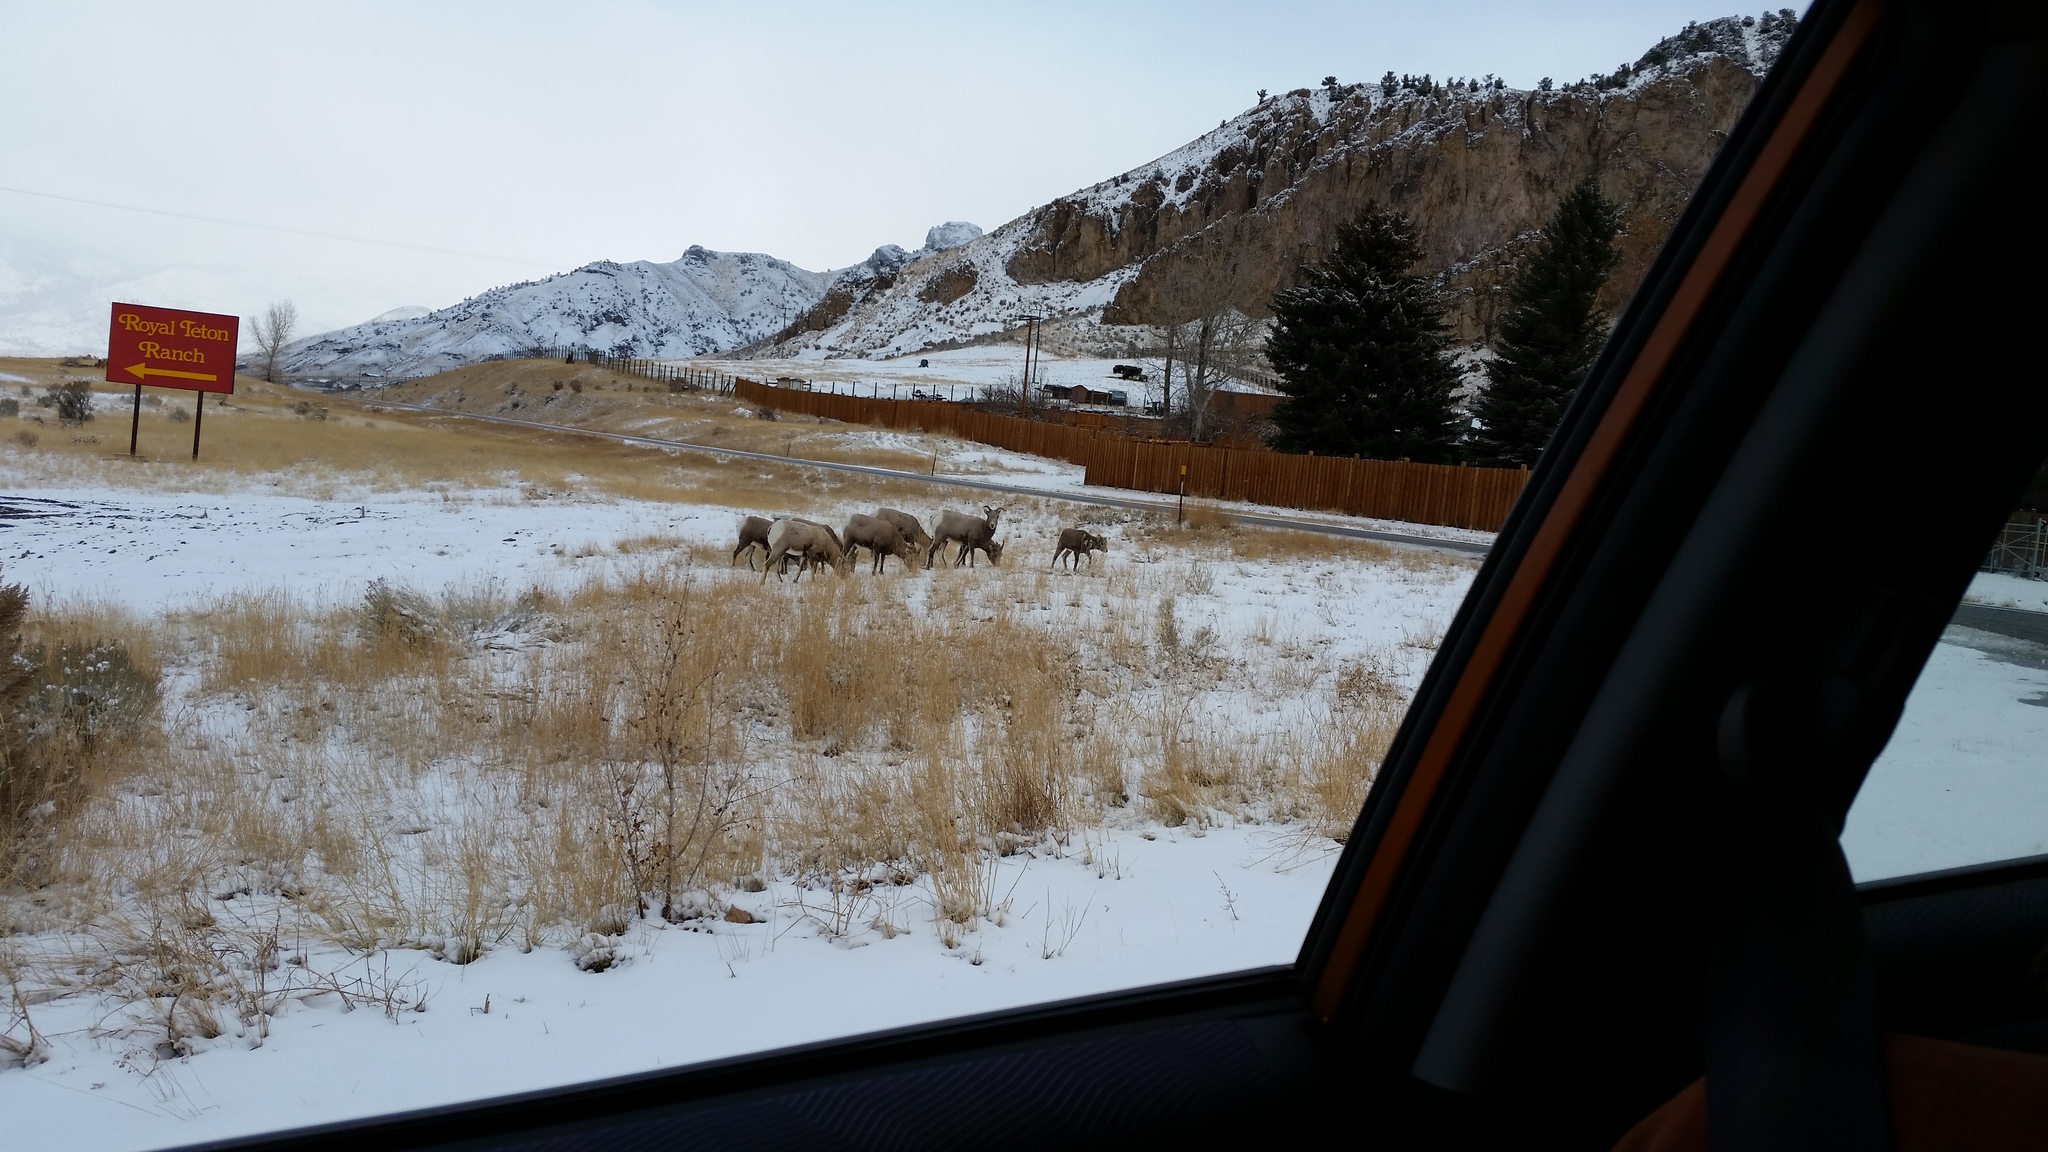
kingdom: Animalia
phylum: Chordata
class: Mammalia
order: Artiodactyla
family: Bovidae
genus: Ovis
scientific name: Ovis canadensis
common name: Bighorn sheep
